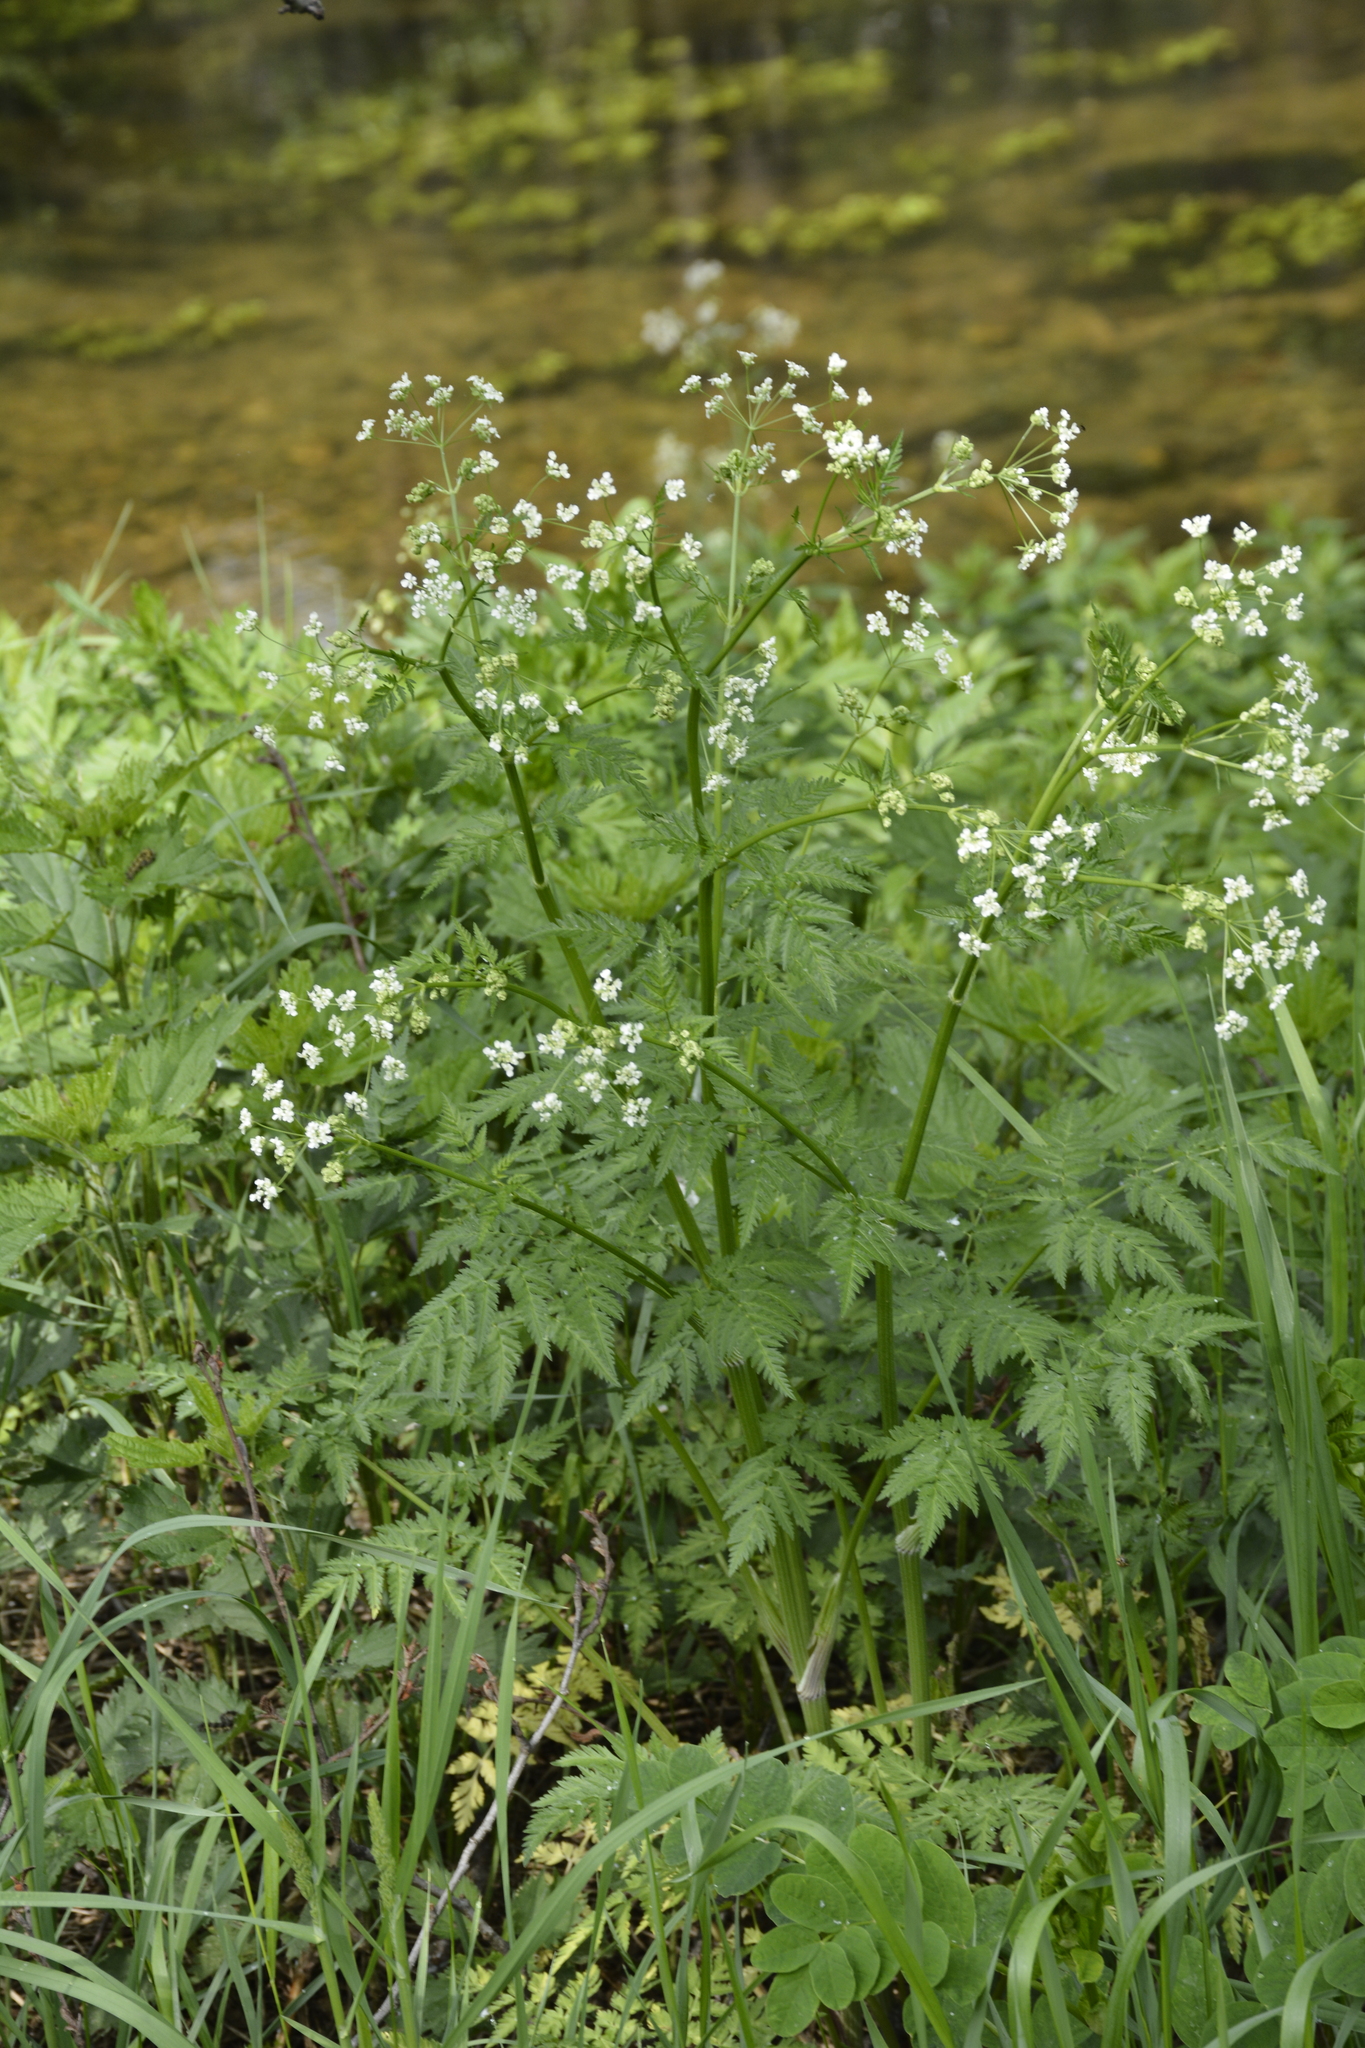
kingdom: Plantae
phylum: Tracheophyta
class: Magnoliopsida
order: Apiales
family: Apiaceae
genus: Anthriscus
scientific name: Anthriscus sylvestris
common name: Cow parsley
